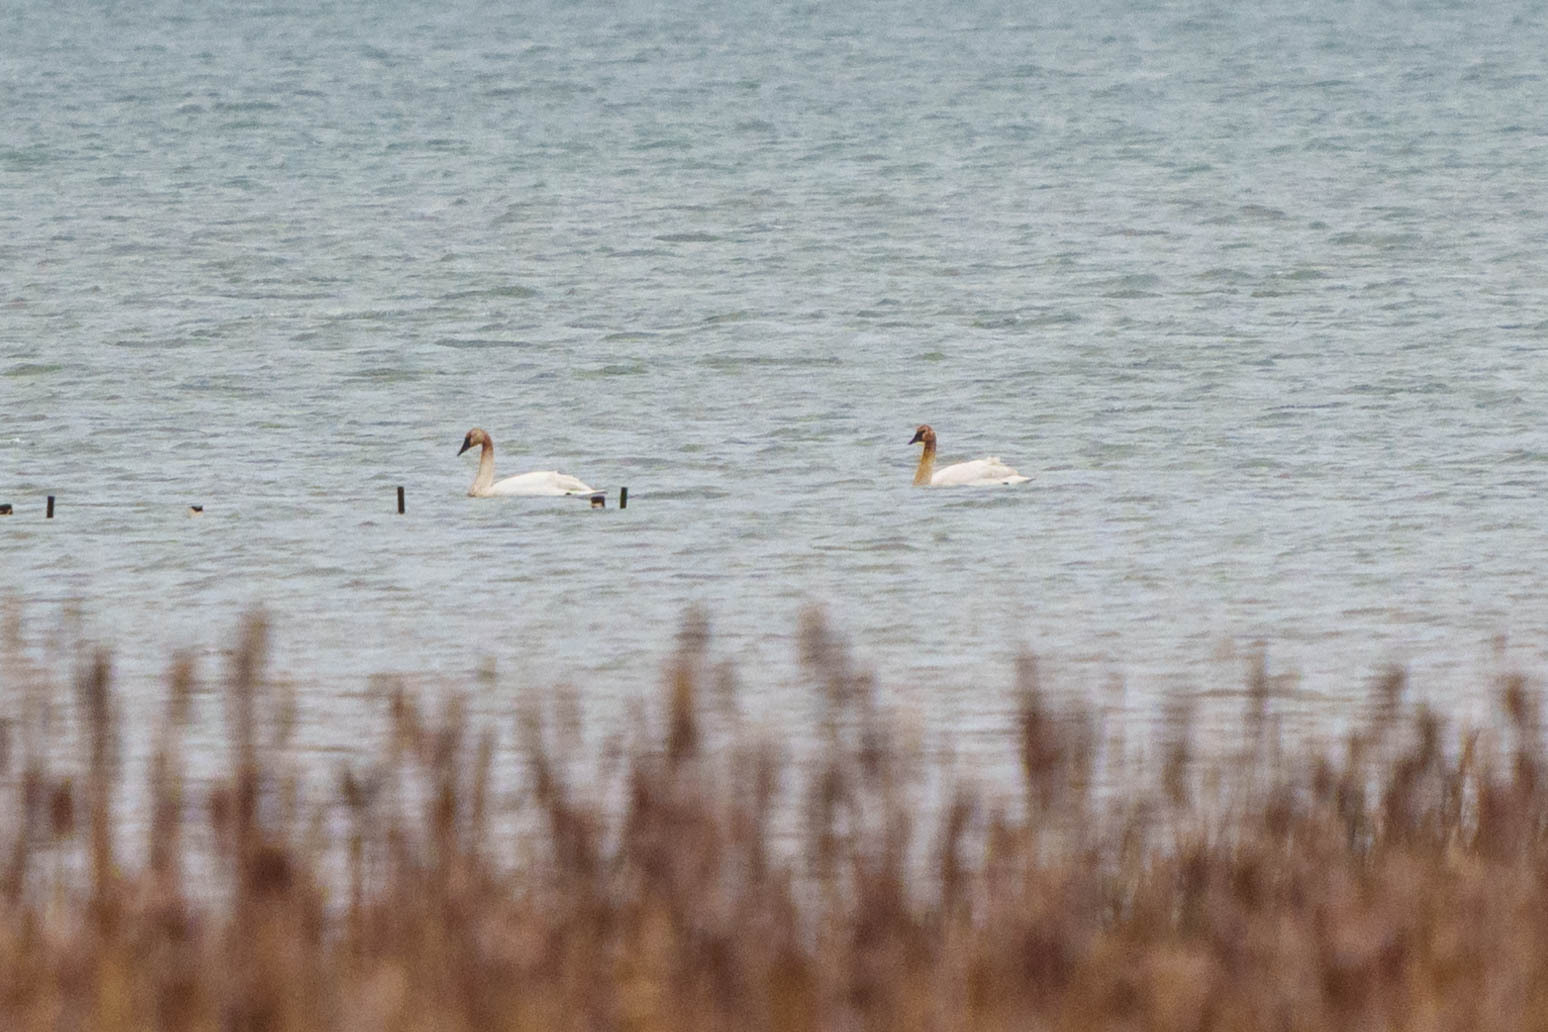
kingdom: Animalia
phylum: Chordata
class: Aves
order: Anseriformes
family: Anatidae
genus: Cygnus
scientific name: Cygnus buccinator
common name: Trumpeter swan
